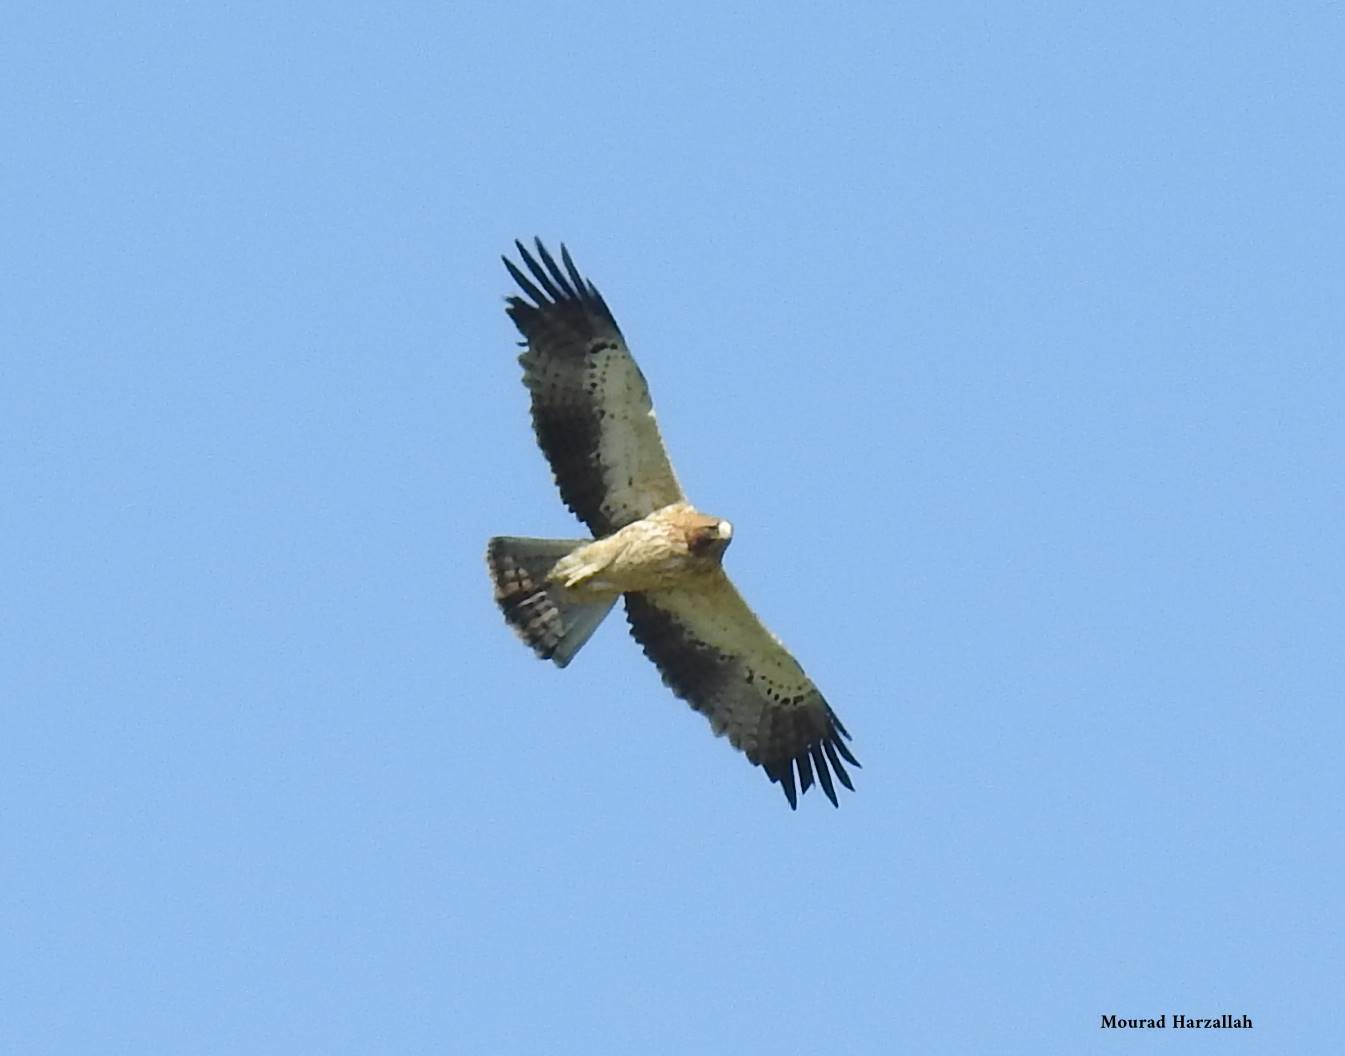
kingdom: Animalia
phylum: Chordata
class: Aves
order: Accipitriformes
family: Accipitridae
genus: Hieraaetus
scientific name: Hieraaetus pennatus
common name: Booted eagle
